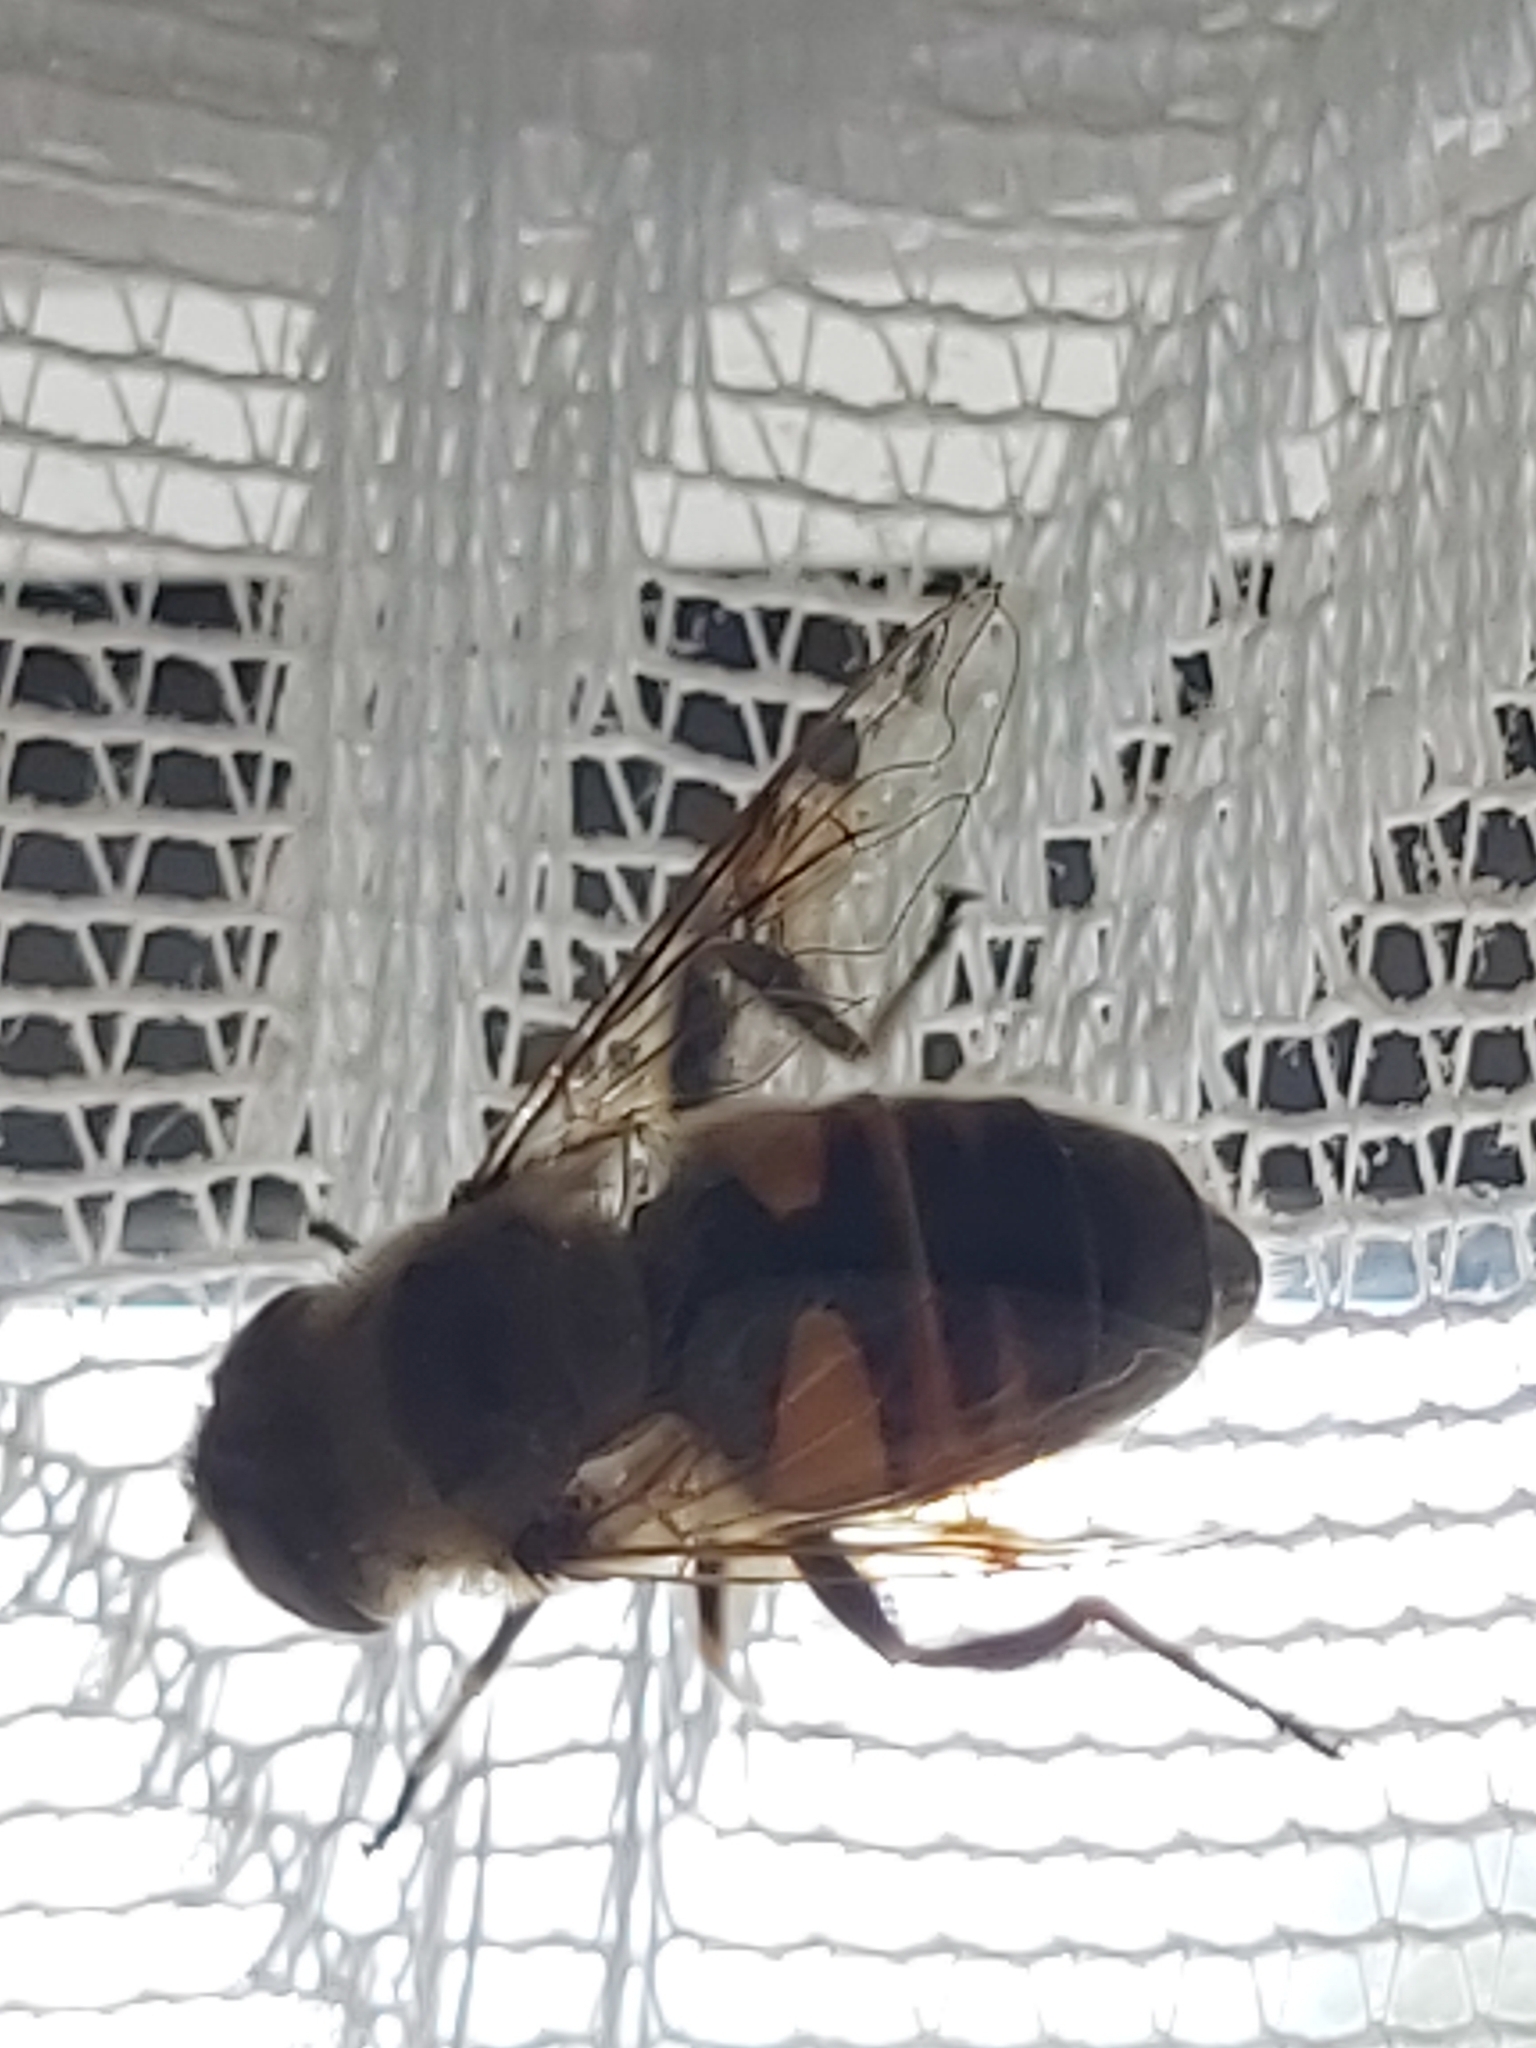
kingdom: Animalia
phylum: Arthropoda
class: Insecta
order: Diptera
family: Syrphidae
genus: Eristalis
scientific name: Eristalis tenax
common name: Drone fly
